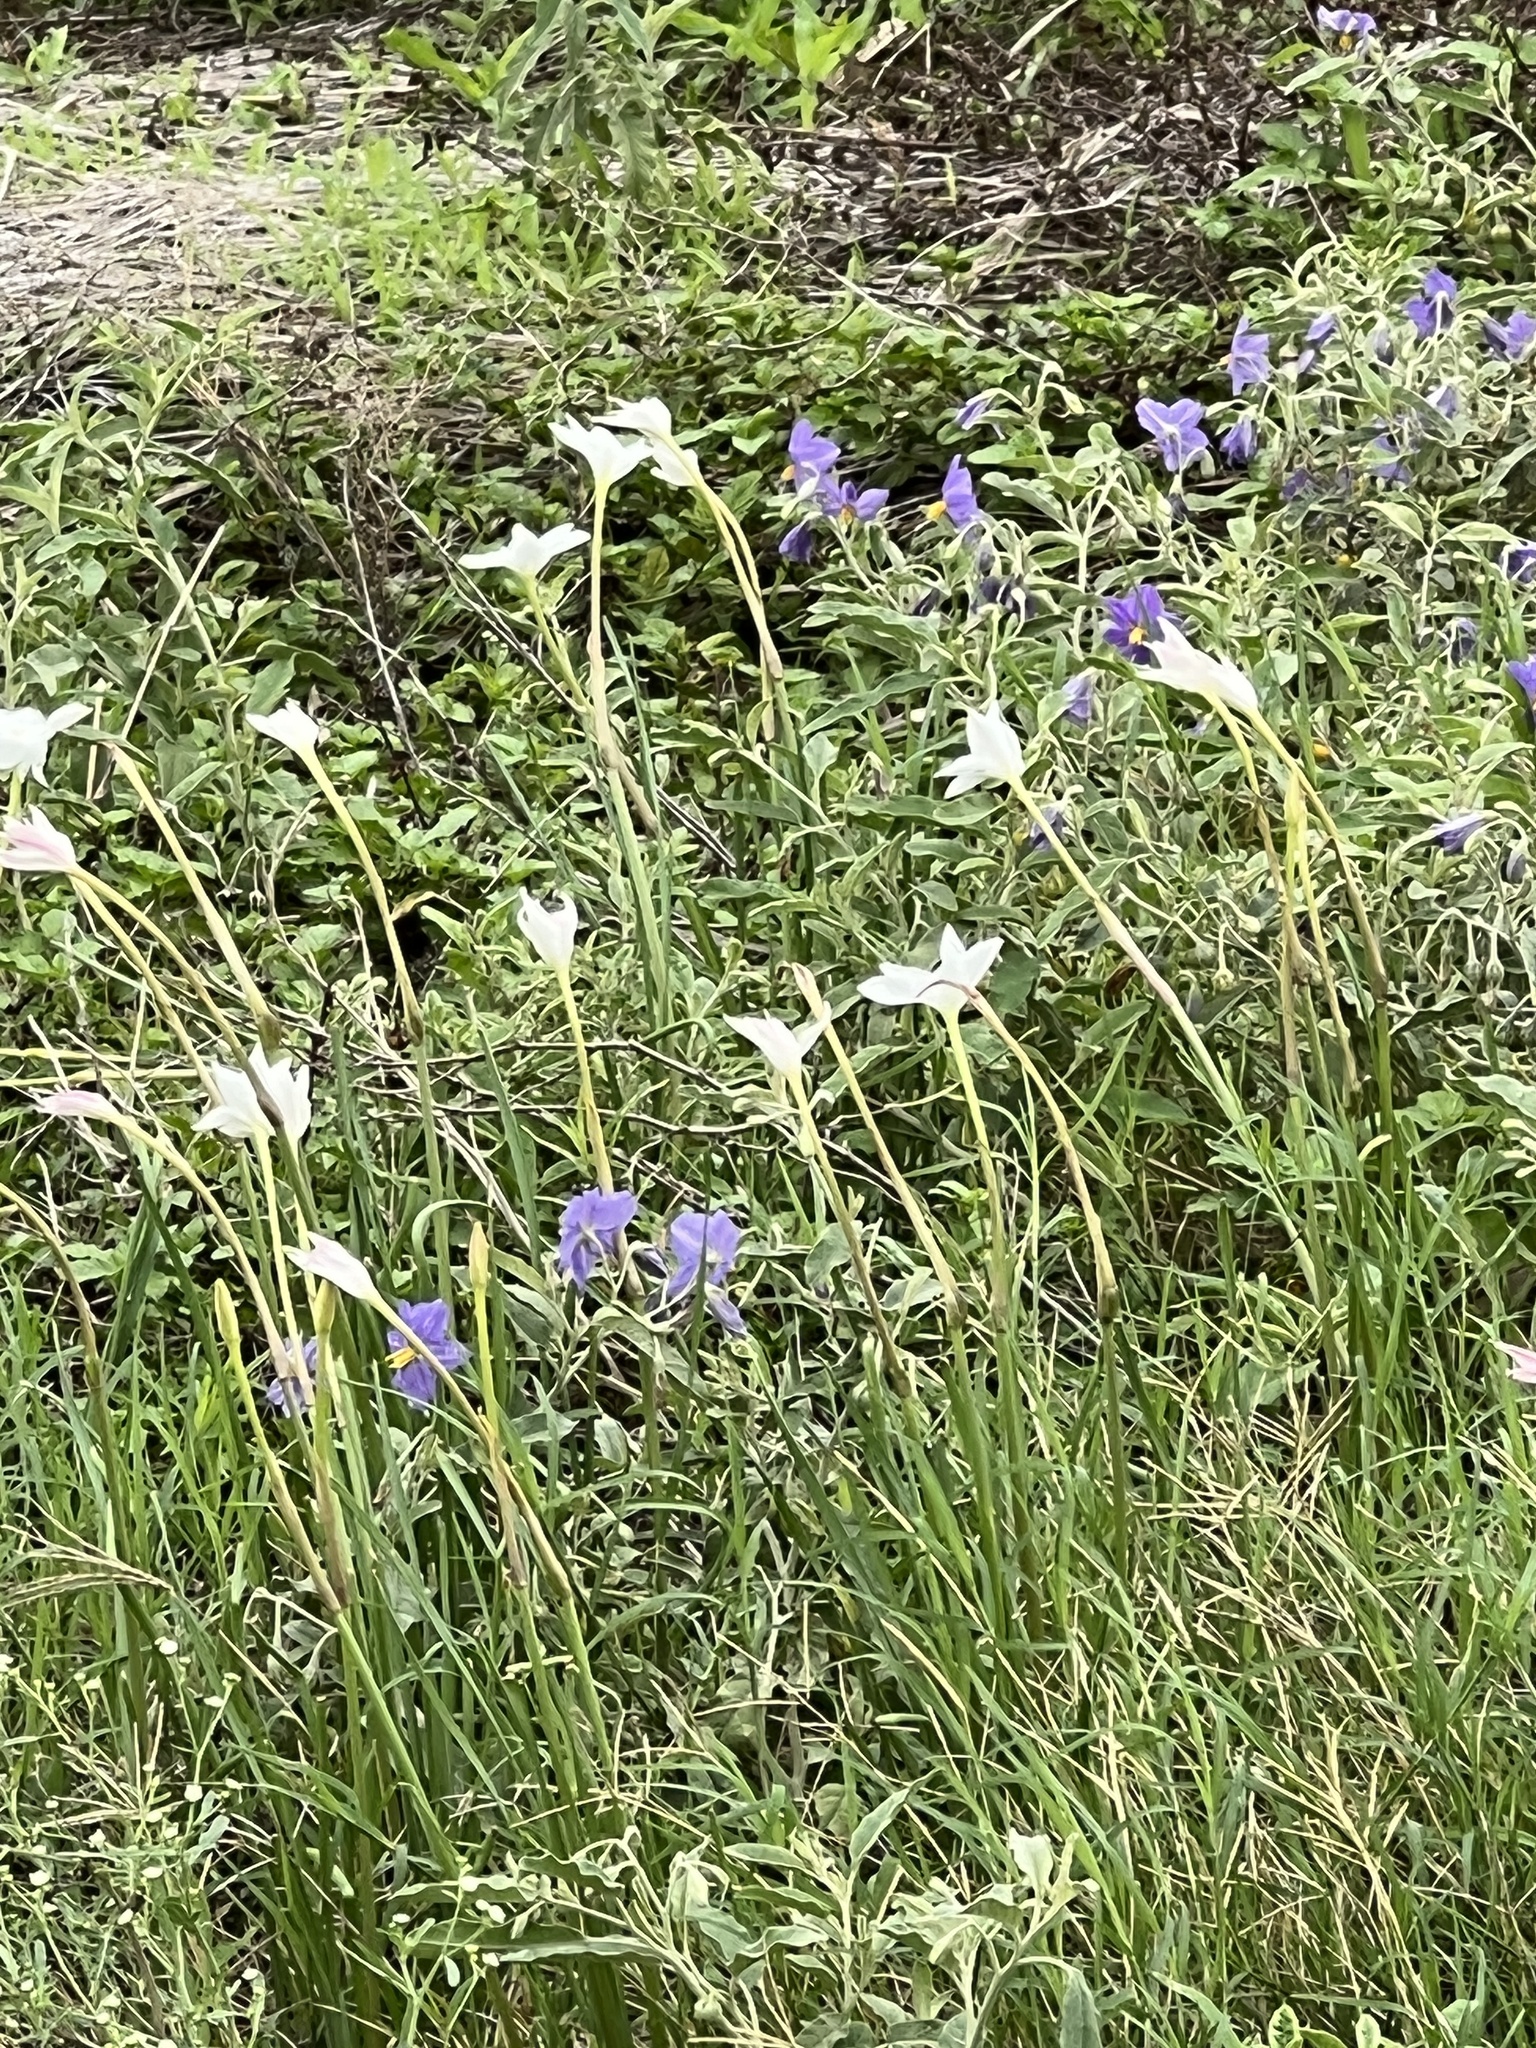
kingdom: Plantae
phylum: Tracheophyta
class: Liliopsida
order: Asparagales
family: Amaryllidaceae
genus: Zephyranthes
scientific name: Zephyranthes chlorosolen
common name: Evening rain-lily
